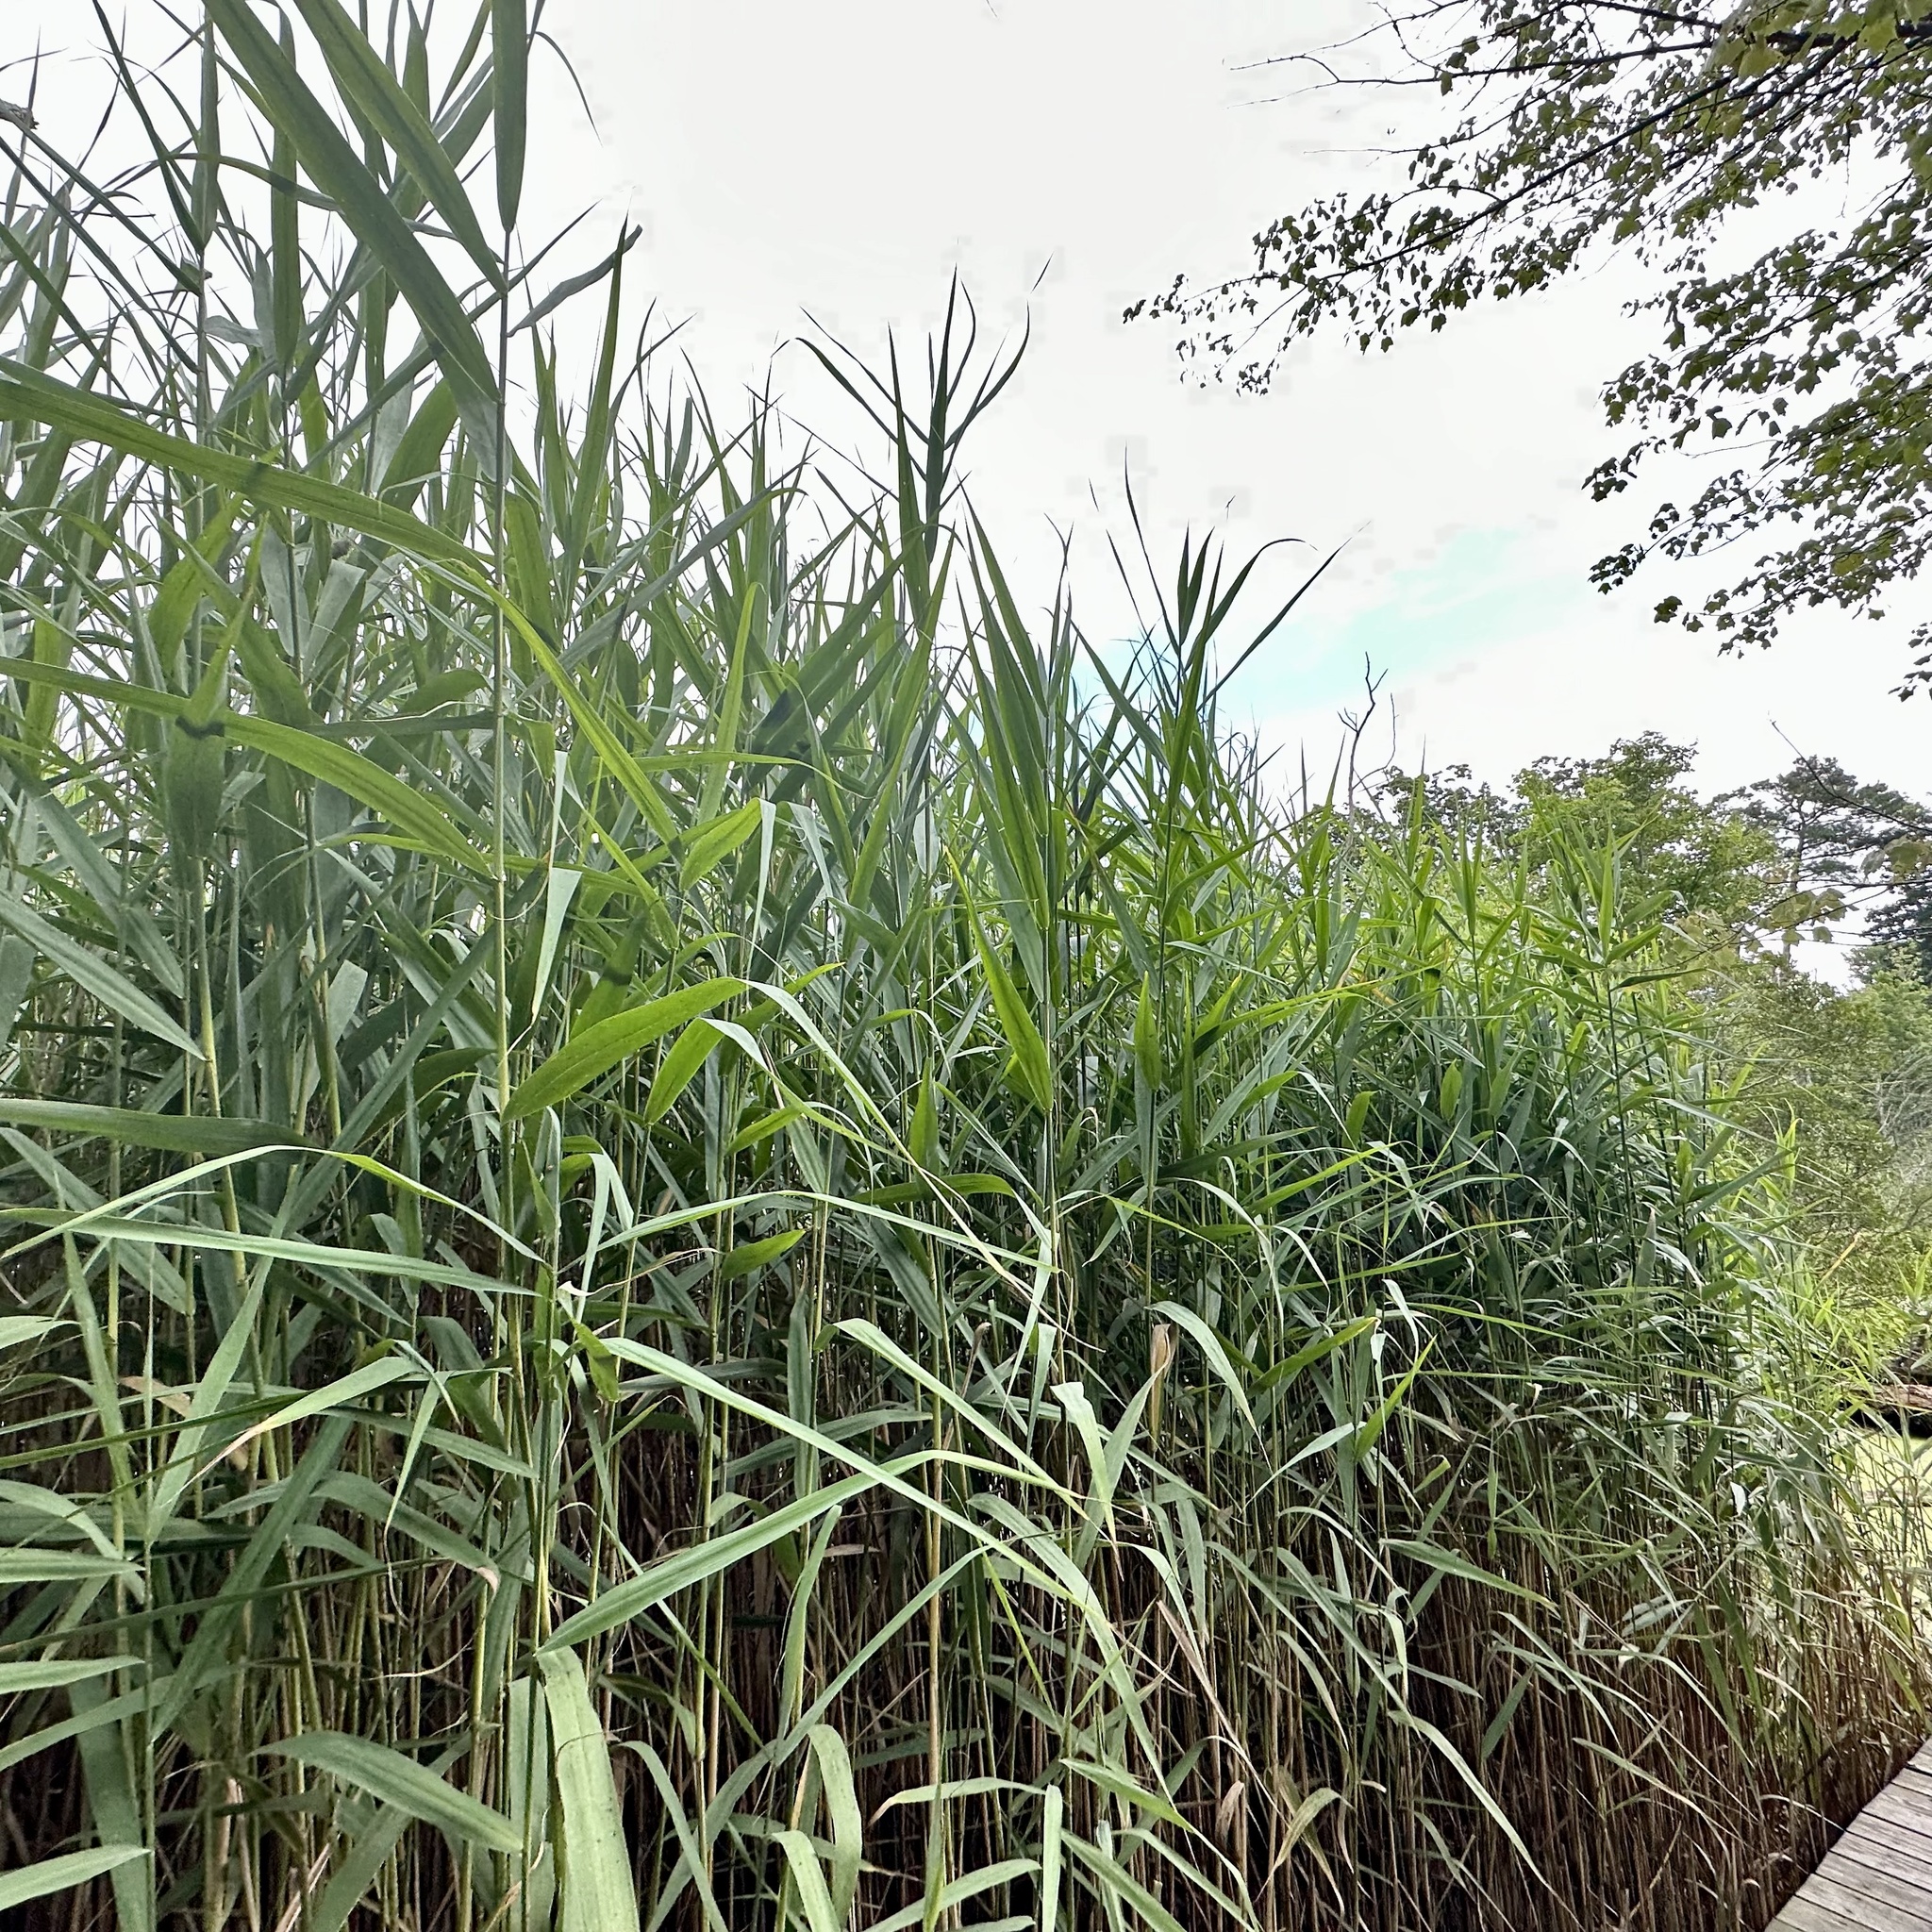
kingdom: Plantae
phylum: Tracheophyta
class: Liliopsida
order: Poales
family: Poaceae
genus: Phragmites
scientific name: Phragmites australis
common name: Common reed
